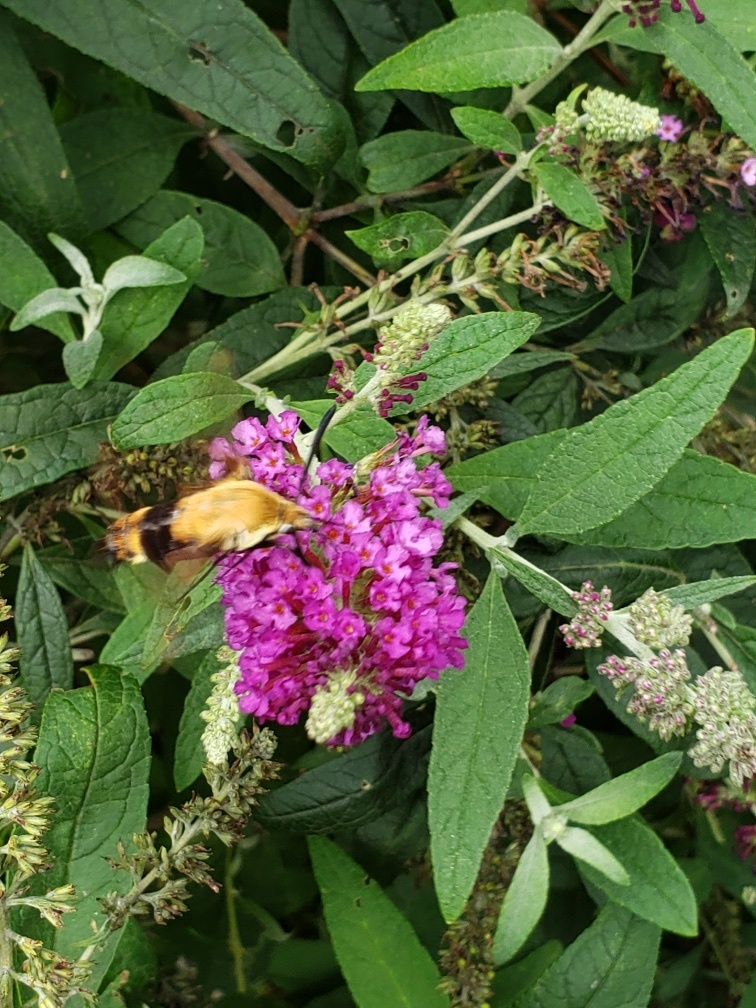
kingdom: Animalia
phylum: Arthropoda
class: Insecta
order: Lepidoptera
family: Sphingidae
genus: Hemaris
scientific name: Hemaris diffinis
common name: Bumblebee moth
